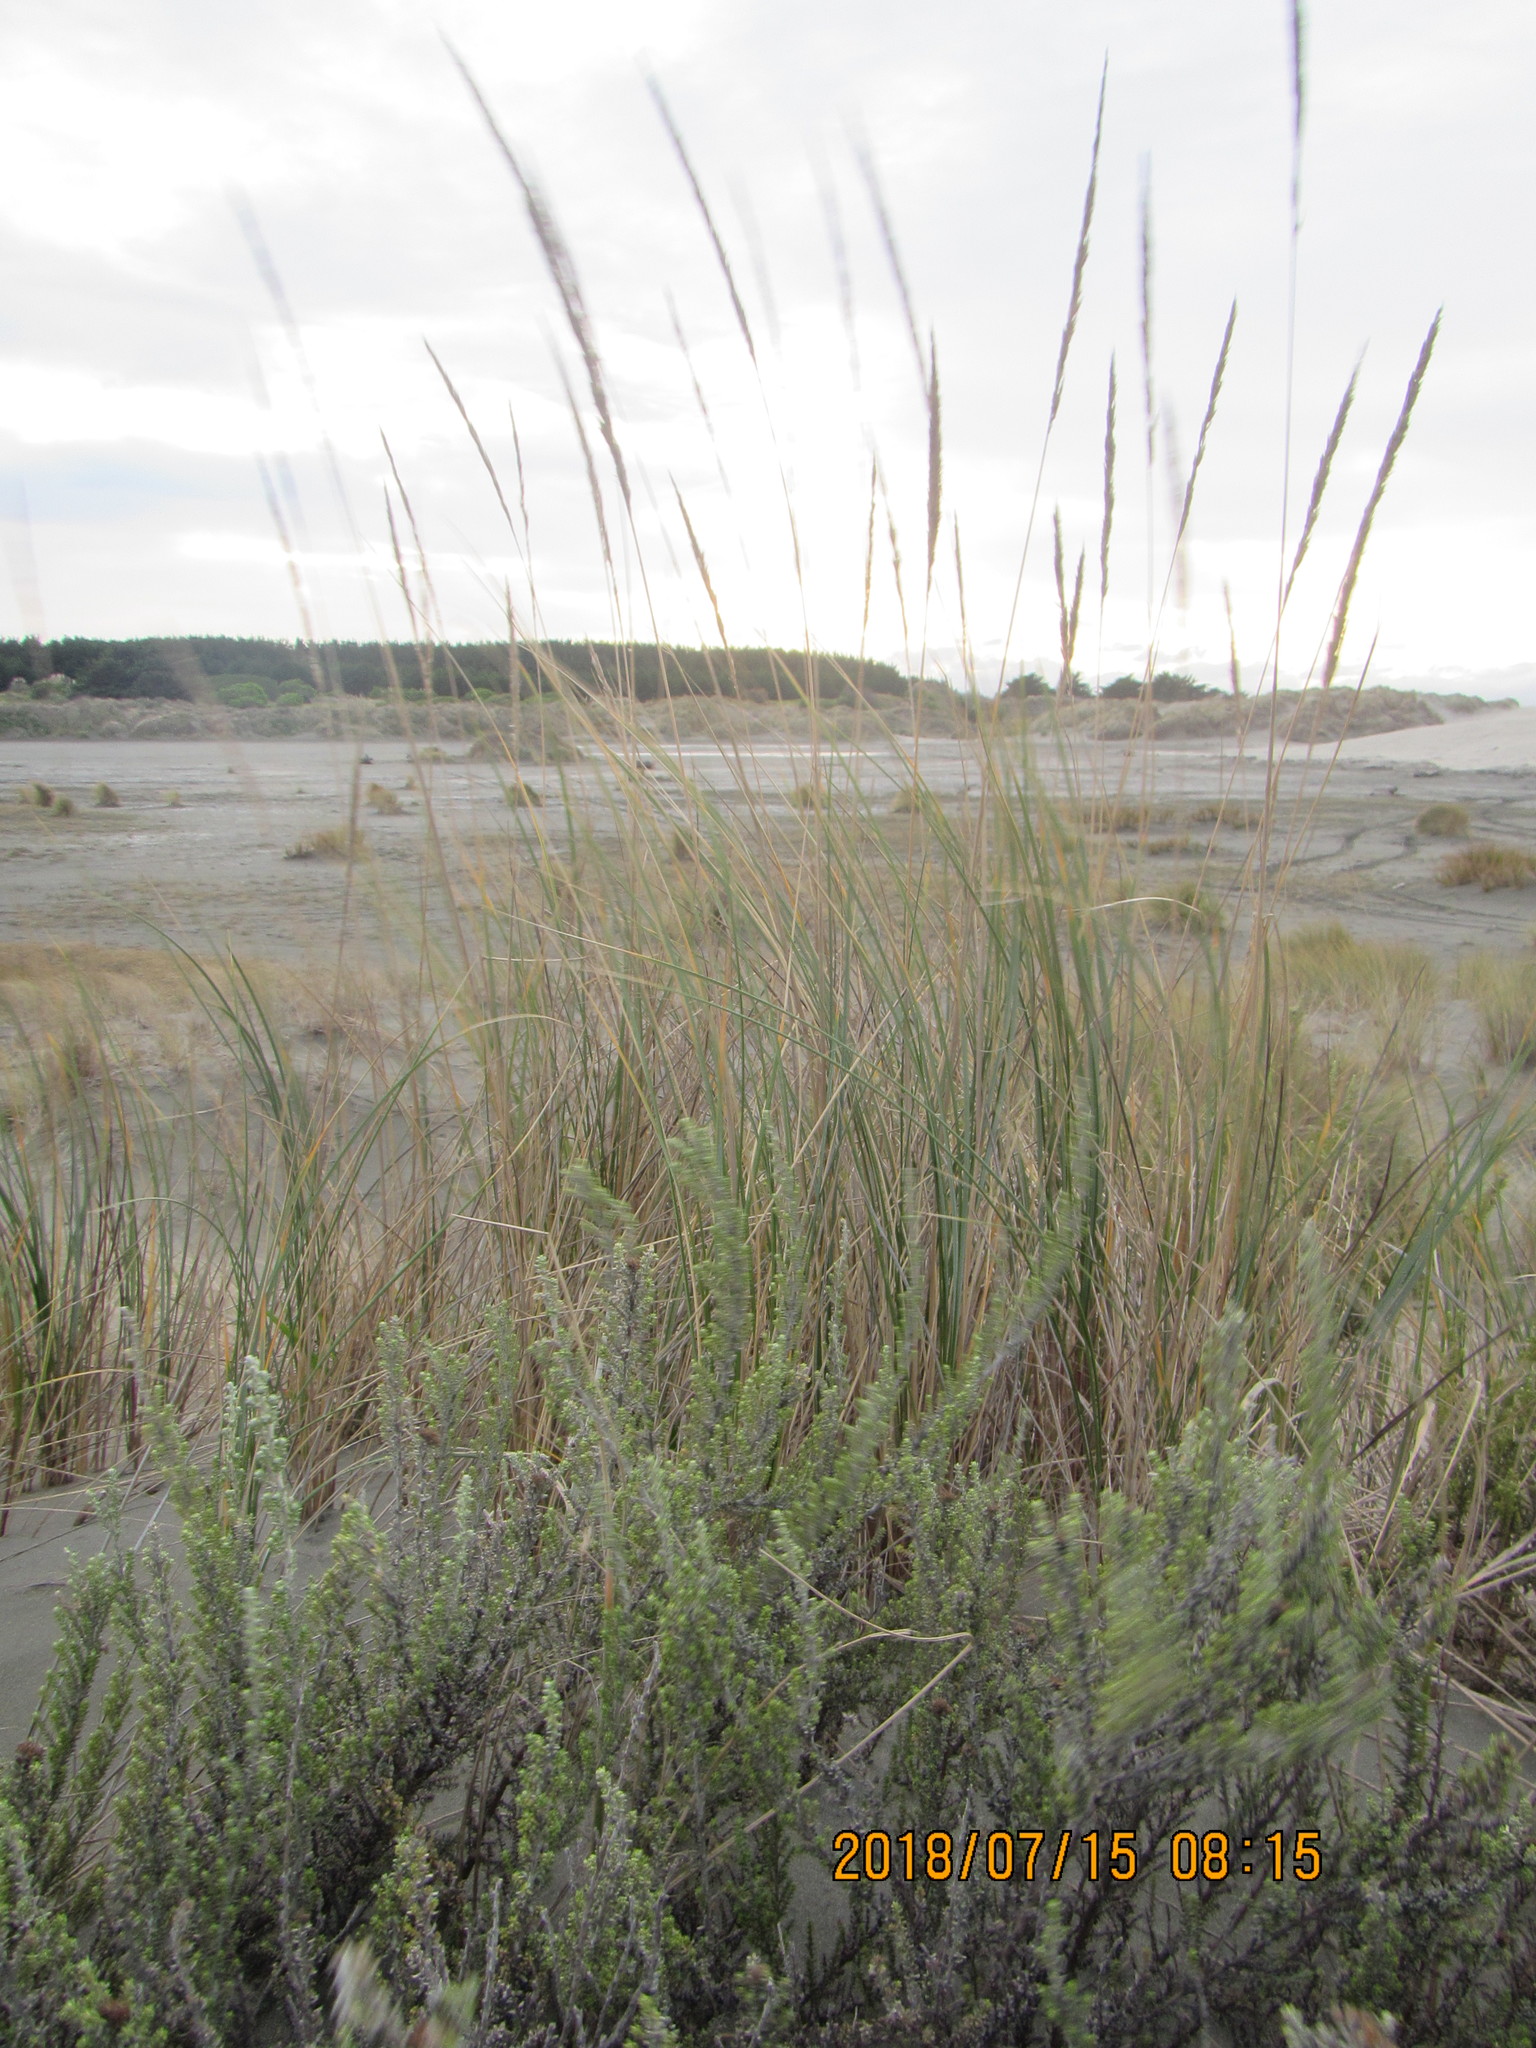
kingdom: Plantae
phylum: Tracheophyta
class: Liliopsida
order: Poales
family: Poaceae
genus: Calamagrostis
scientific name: Calamagrostis arenaria
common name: European beachgrass
